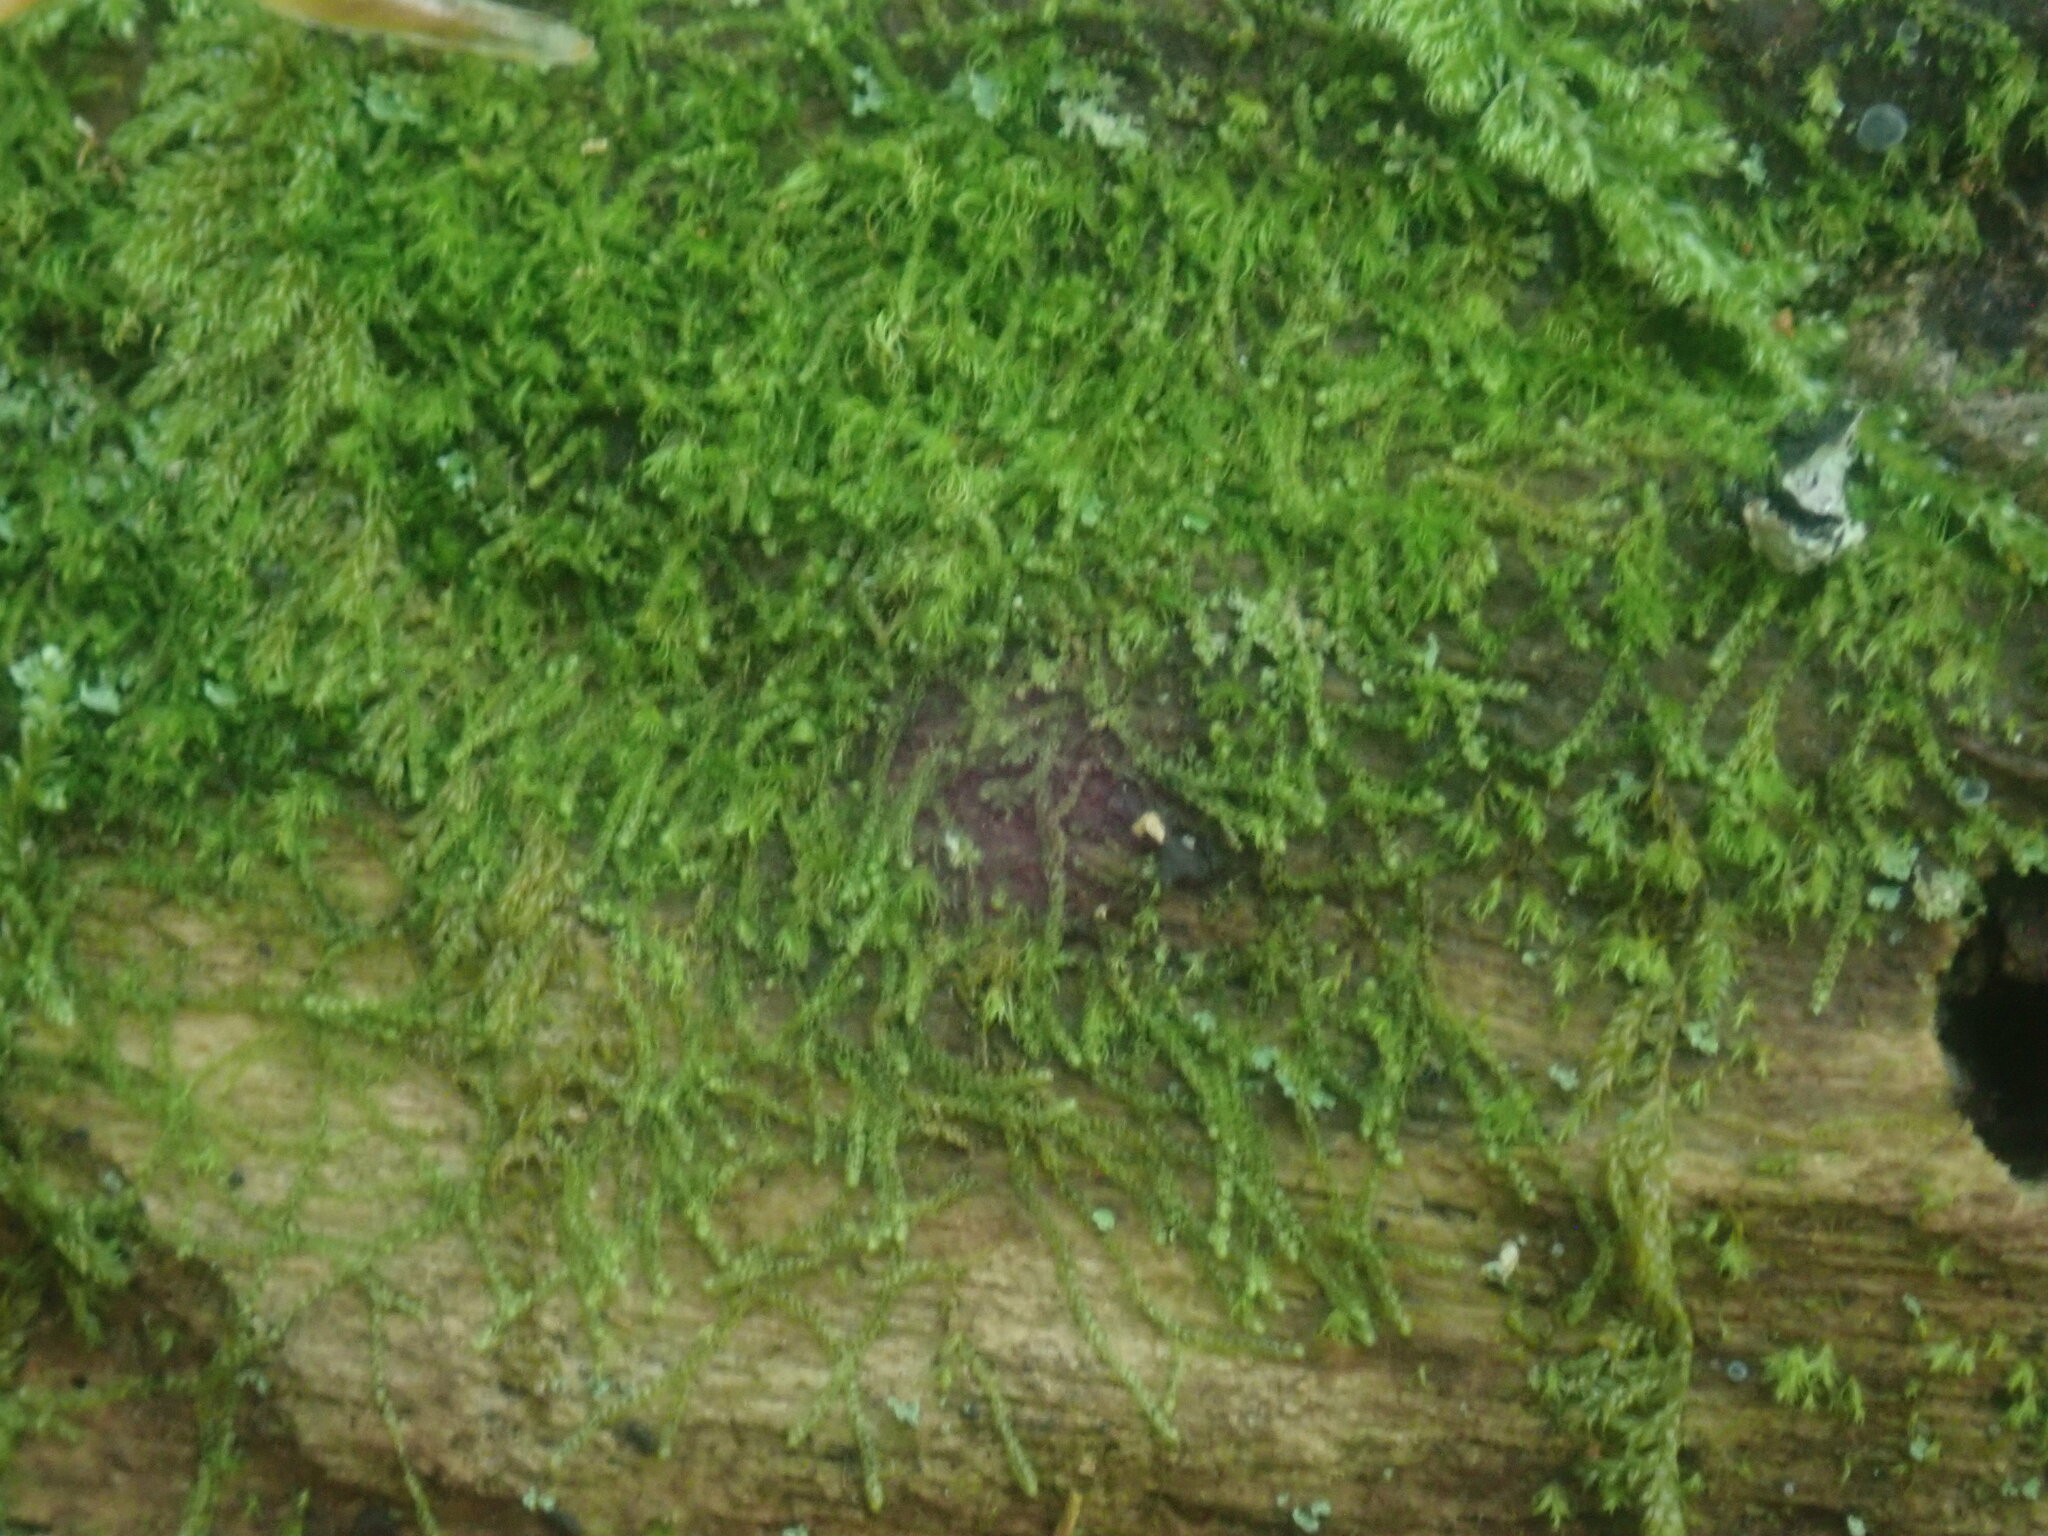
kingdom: Plantae
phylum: Marchantiophyta
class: Jungermanniopsida
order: Jungermanniales
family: Cephaloziaceae
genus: Nowellia
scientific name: Nowellia curvifolia
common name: Wood rustwort
